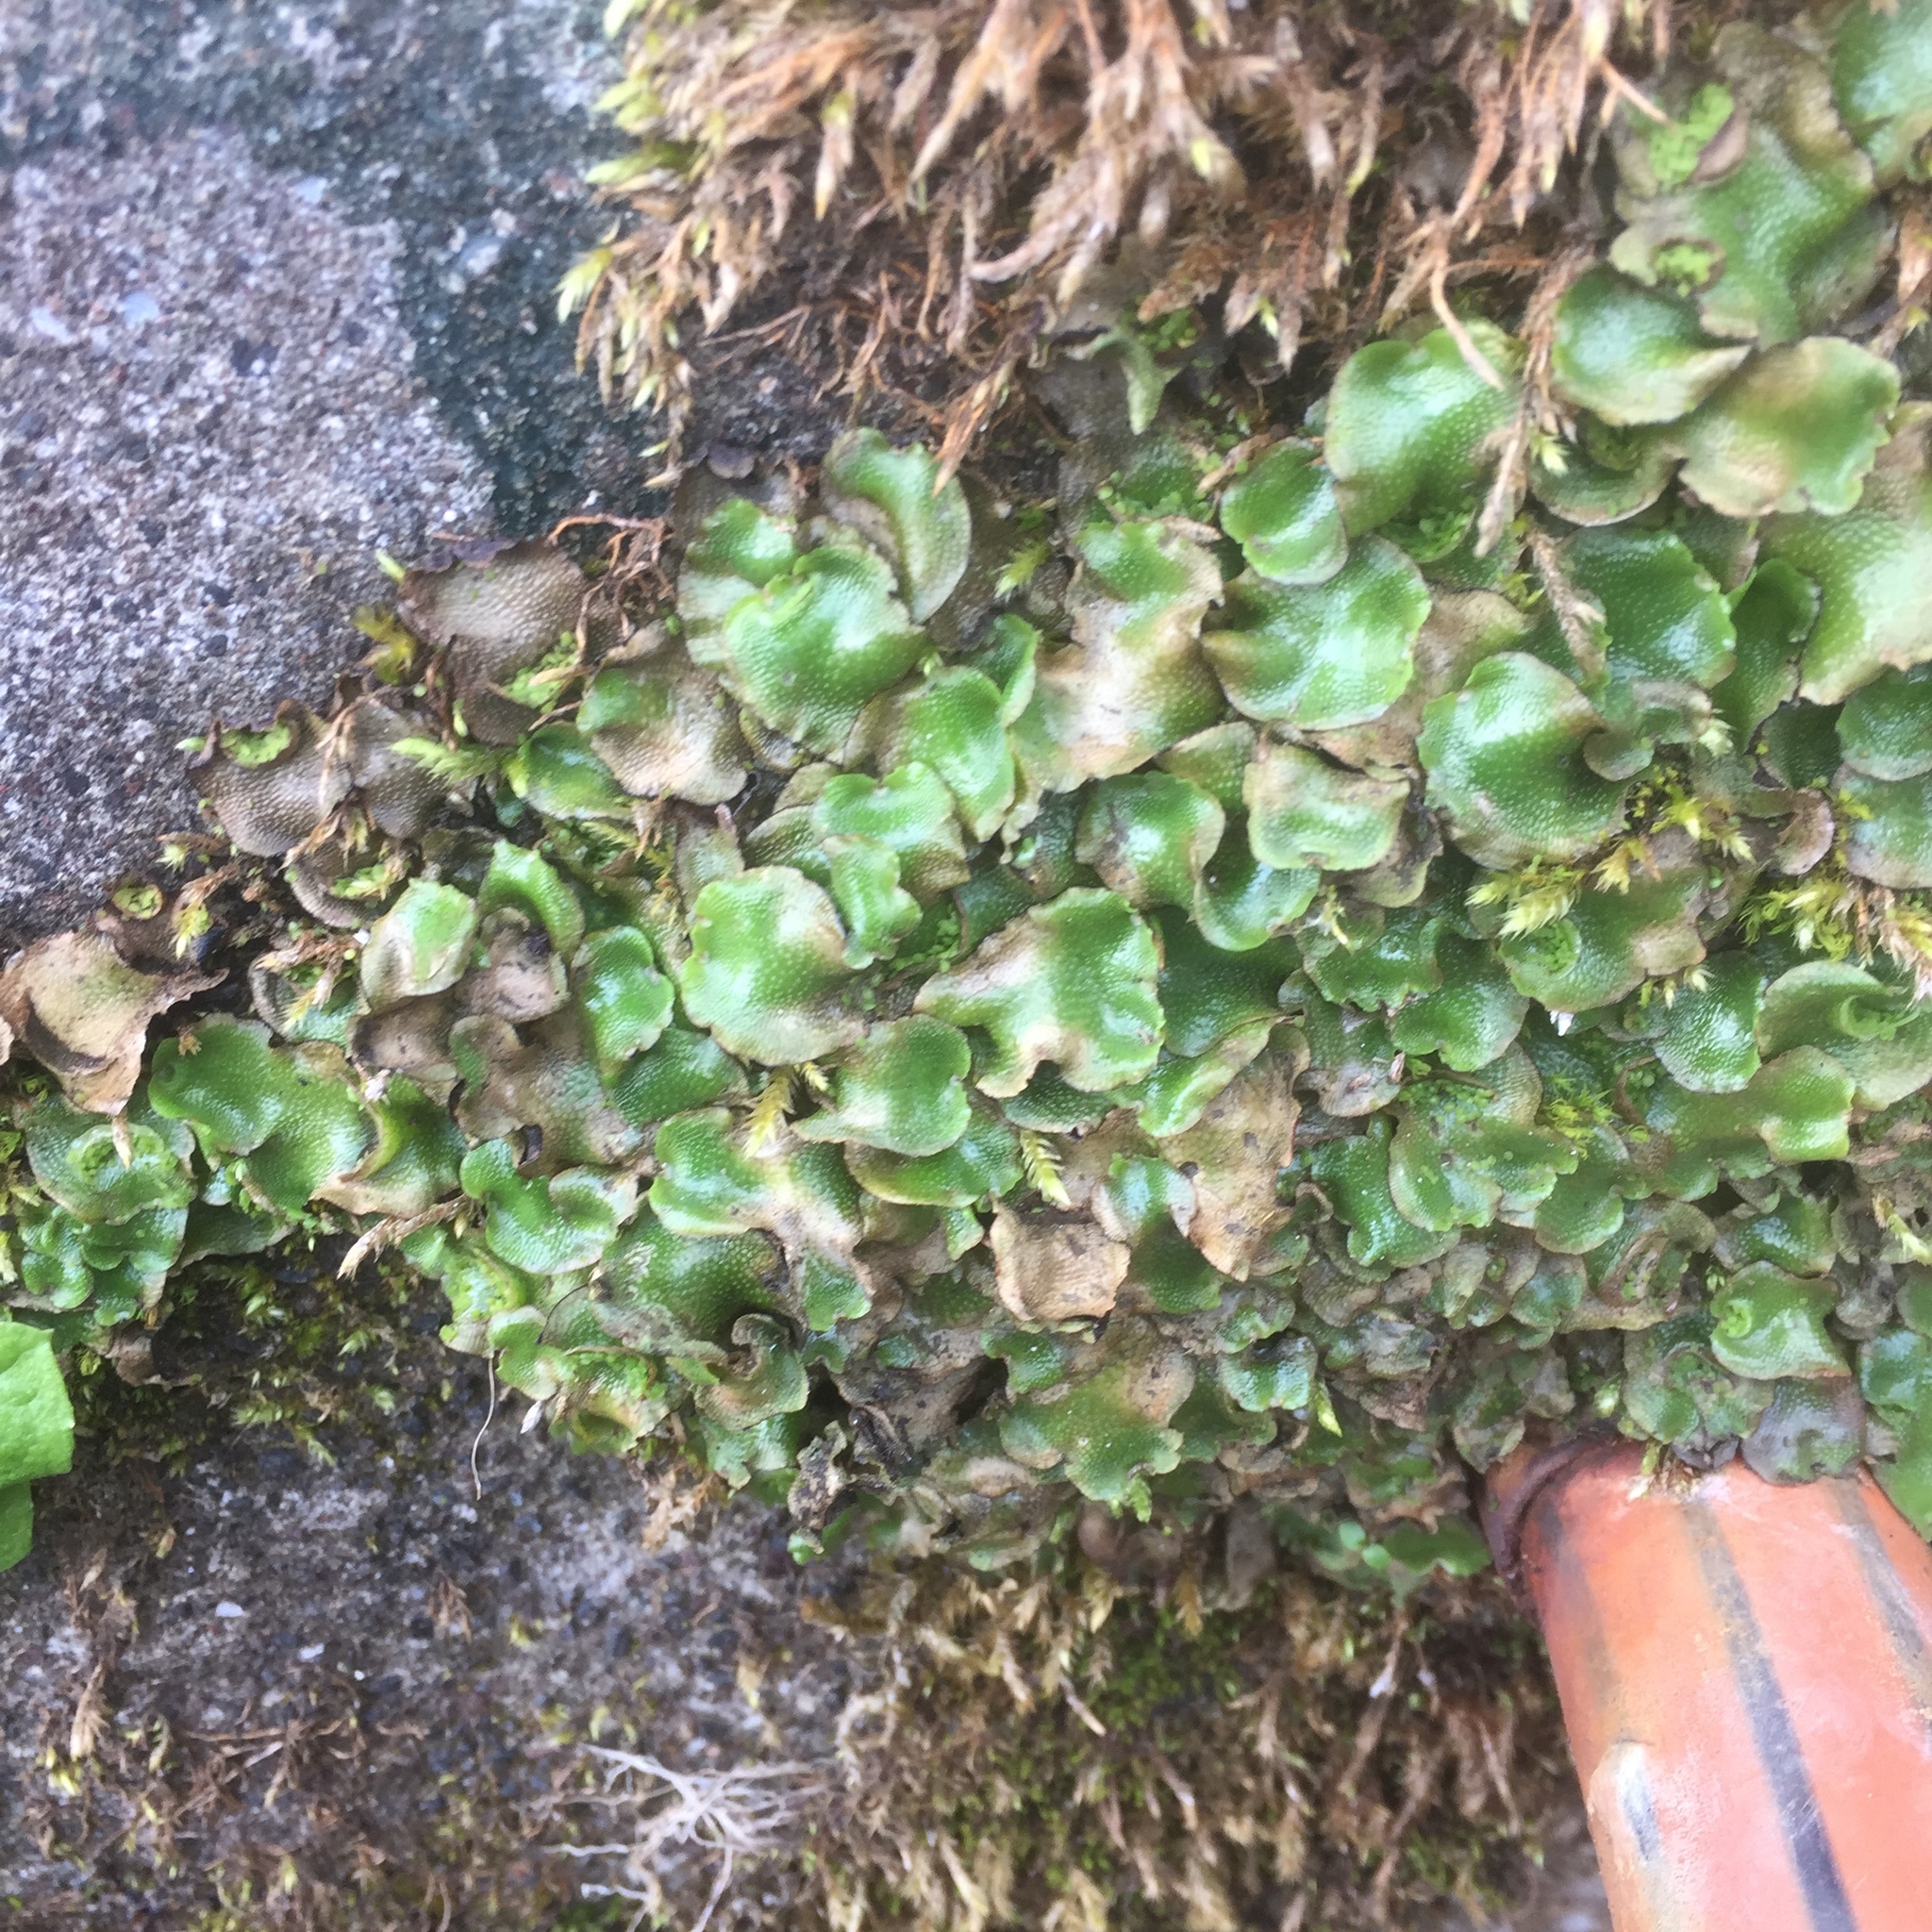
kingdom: Plantae
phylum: Marchantiophyta
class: Marchantiopsida
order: Lunulariales
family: Lunulariaceae
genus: Lunularia
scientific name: Lunularia cruciata
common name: Crescent-cup liverwort
